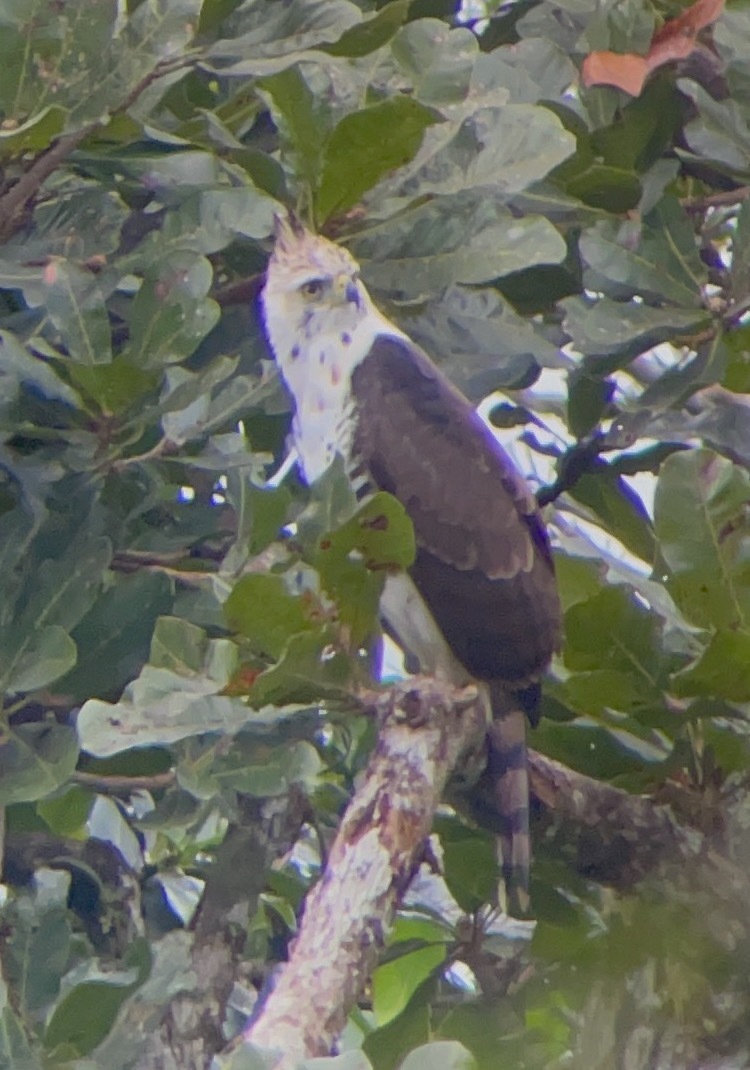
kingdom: Animalia
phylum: Chordata
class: Aves
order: Accipitriformes
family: Accipitridae
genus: Spizaetus
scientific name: Spizaetus ornatus
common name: Ornate hawk-eagle
